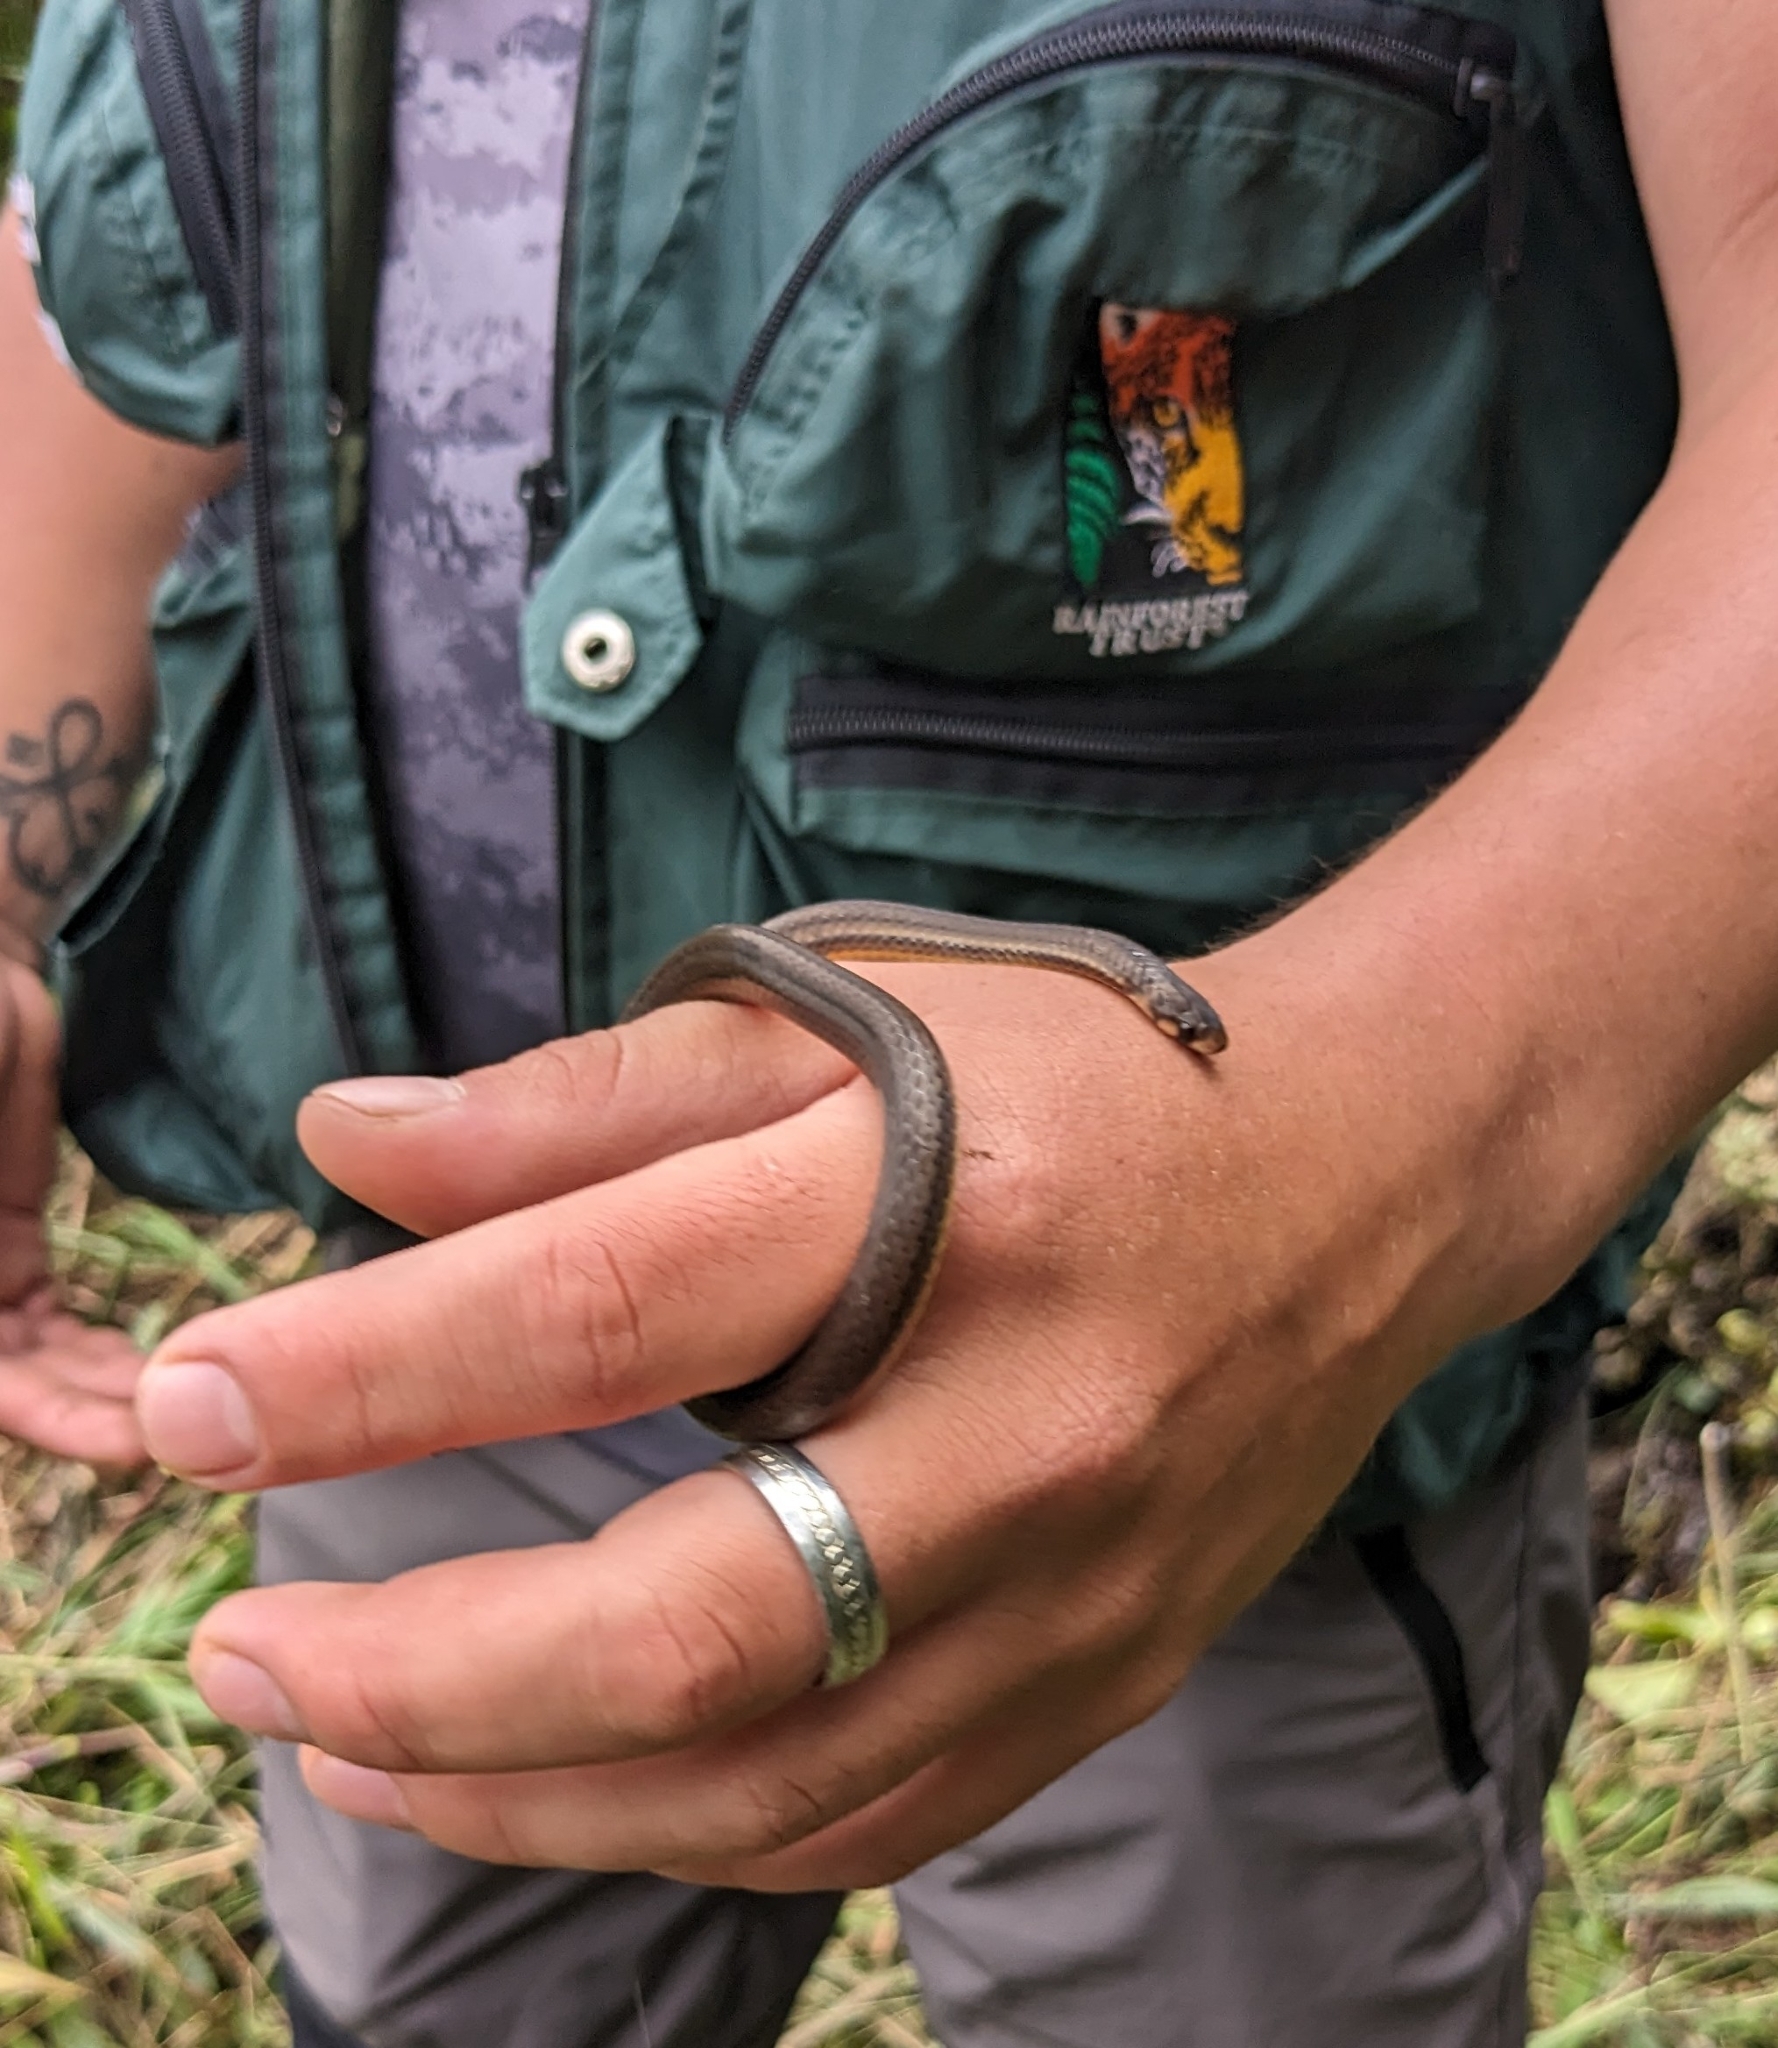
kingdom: Animalia
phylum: Chordata
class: Squamata
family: Colubridae
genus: Tantilla
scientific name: Tantilla melanocephala
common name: Black-headed snake
